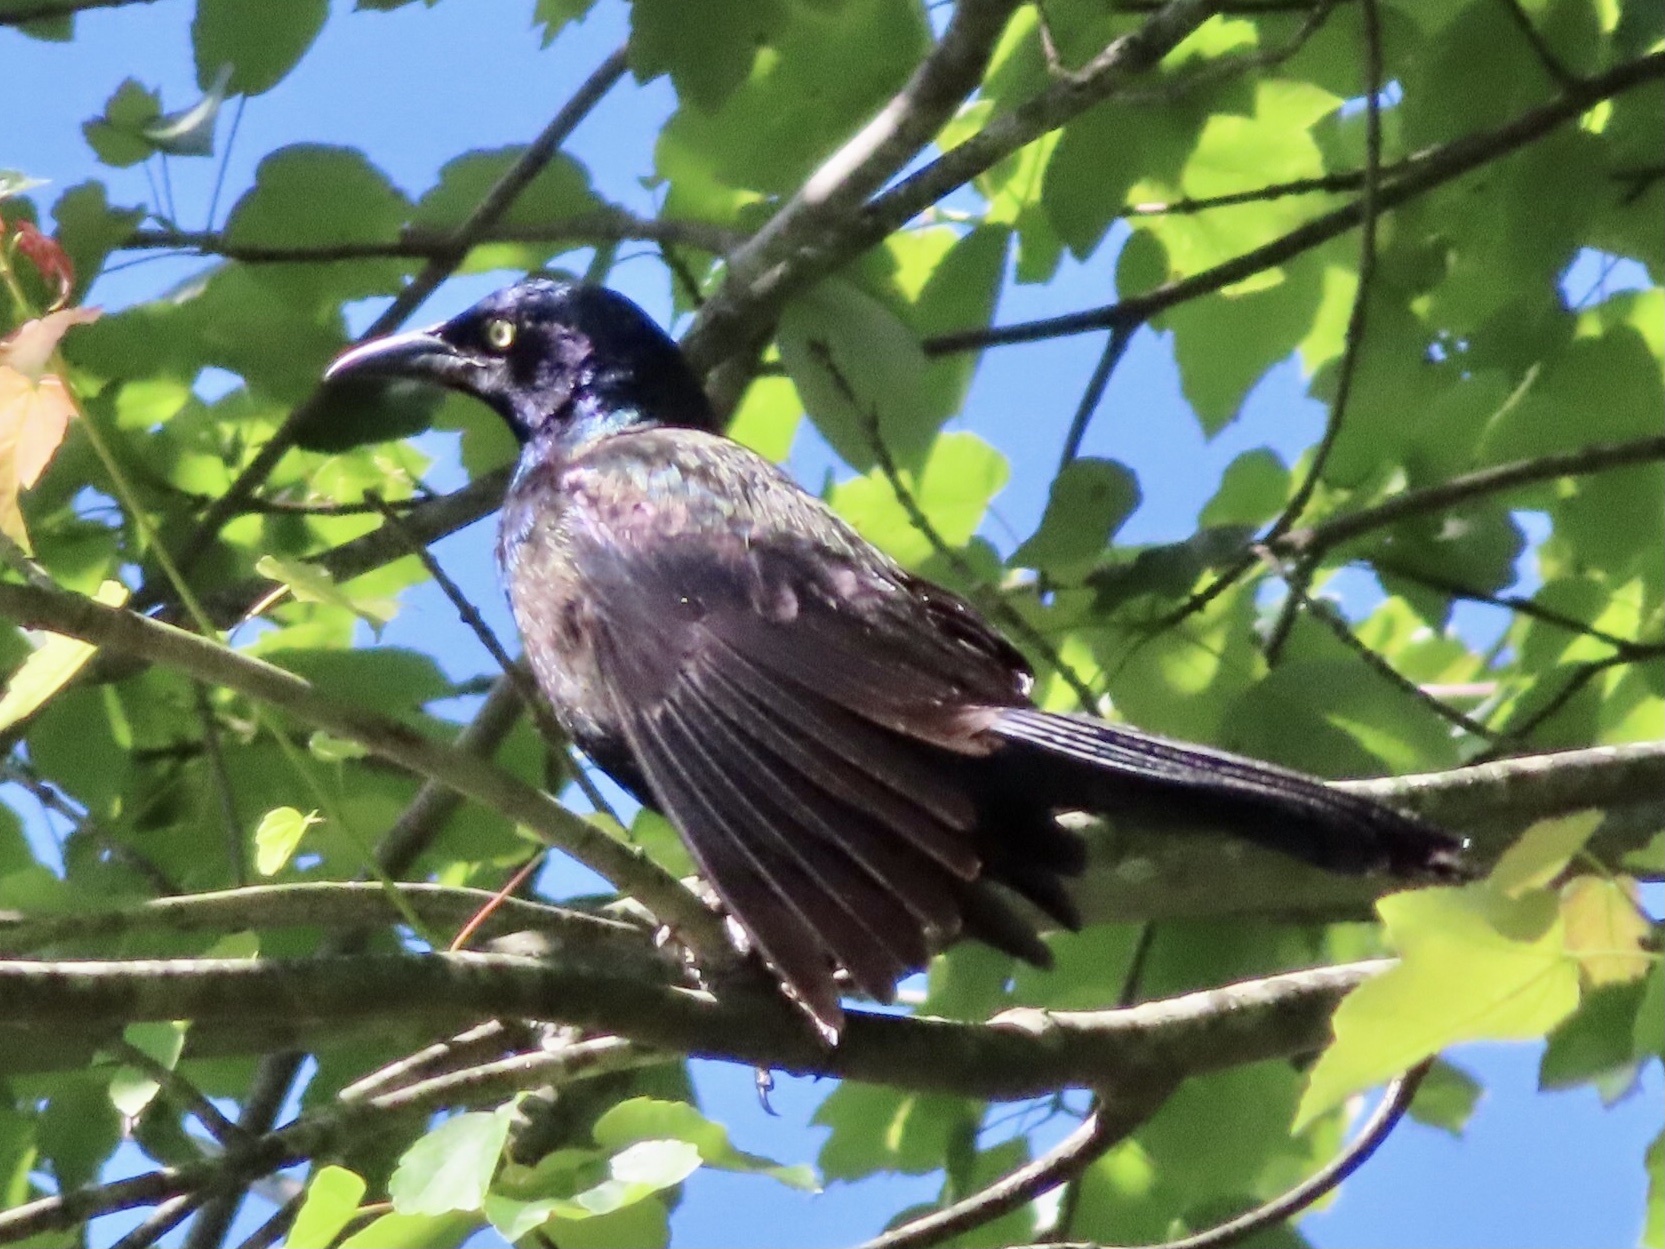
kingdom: Animalia
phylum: Chordata
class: Aves
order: Passeriformes
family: Icteridae
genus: Quiscalus
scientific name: Quiscalus quiscula
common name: Common grackle
